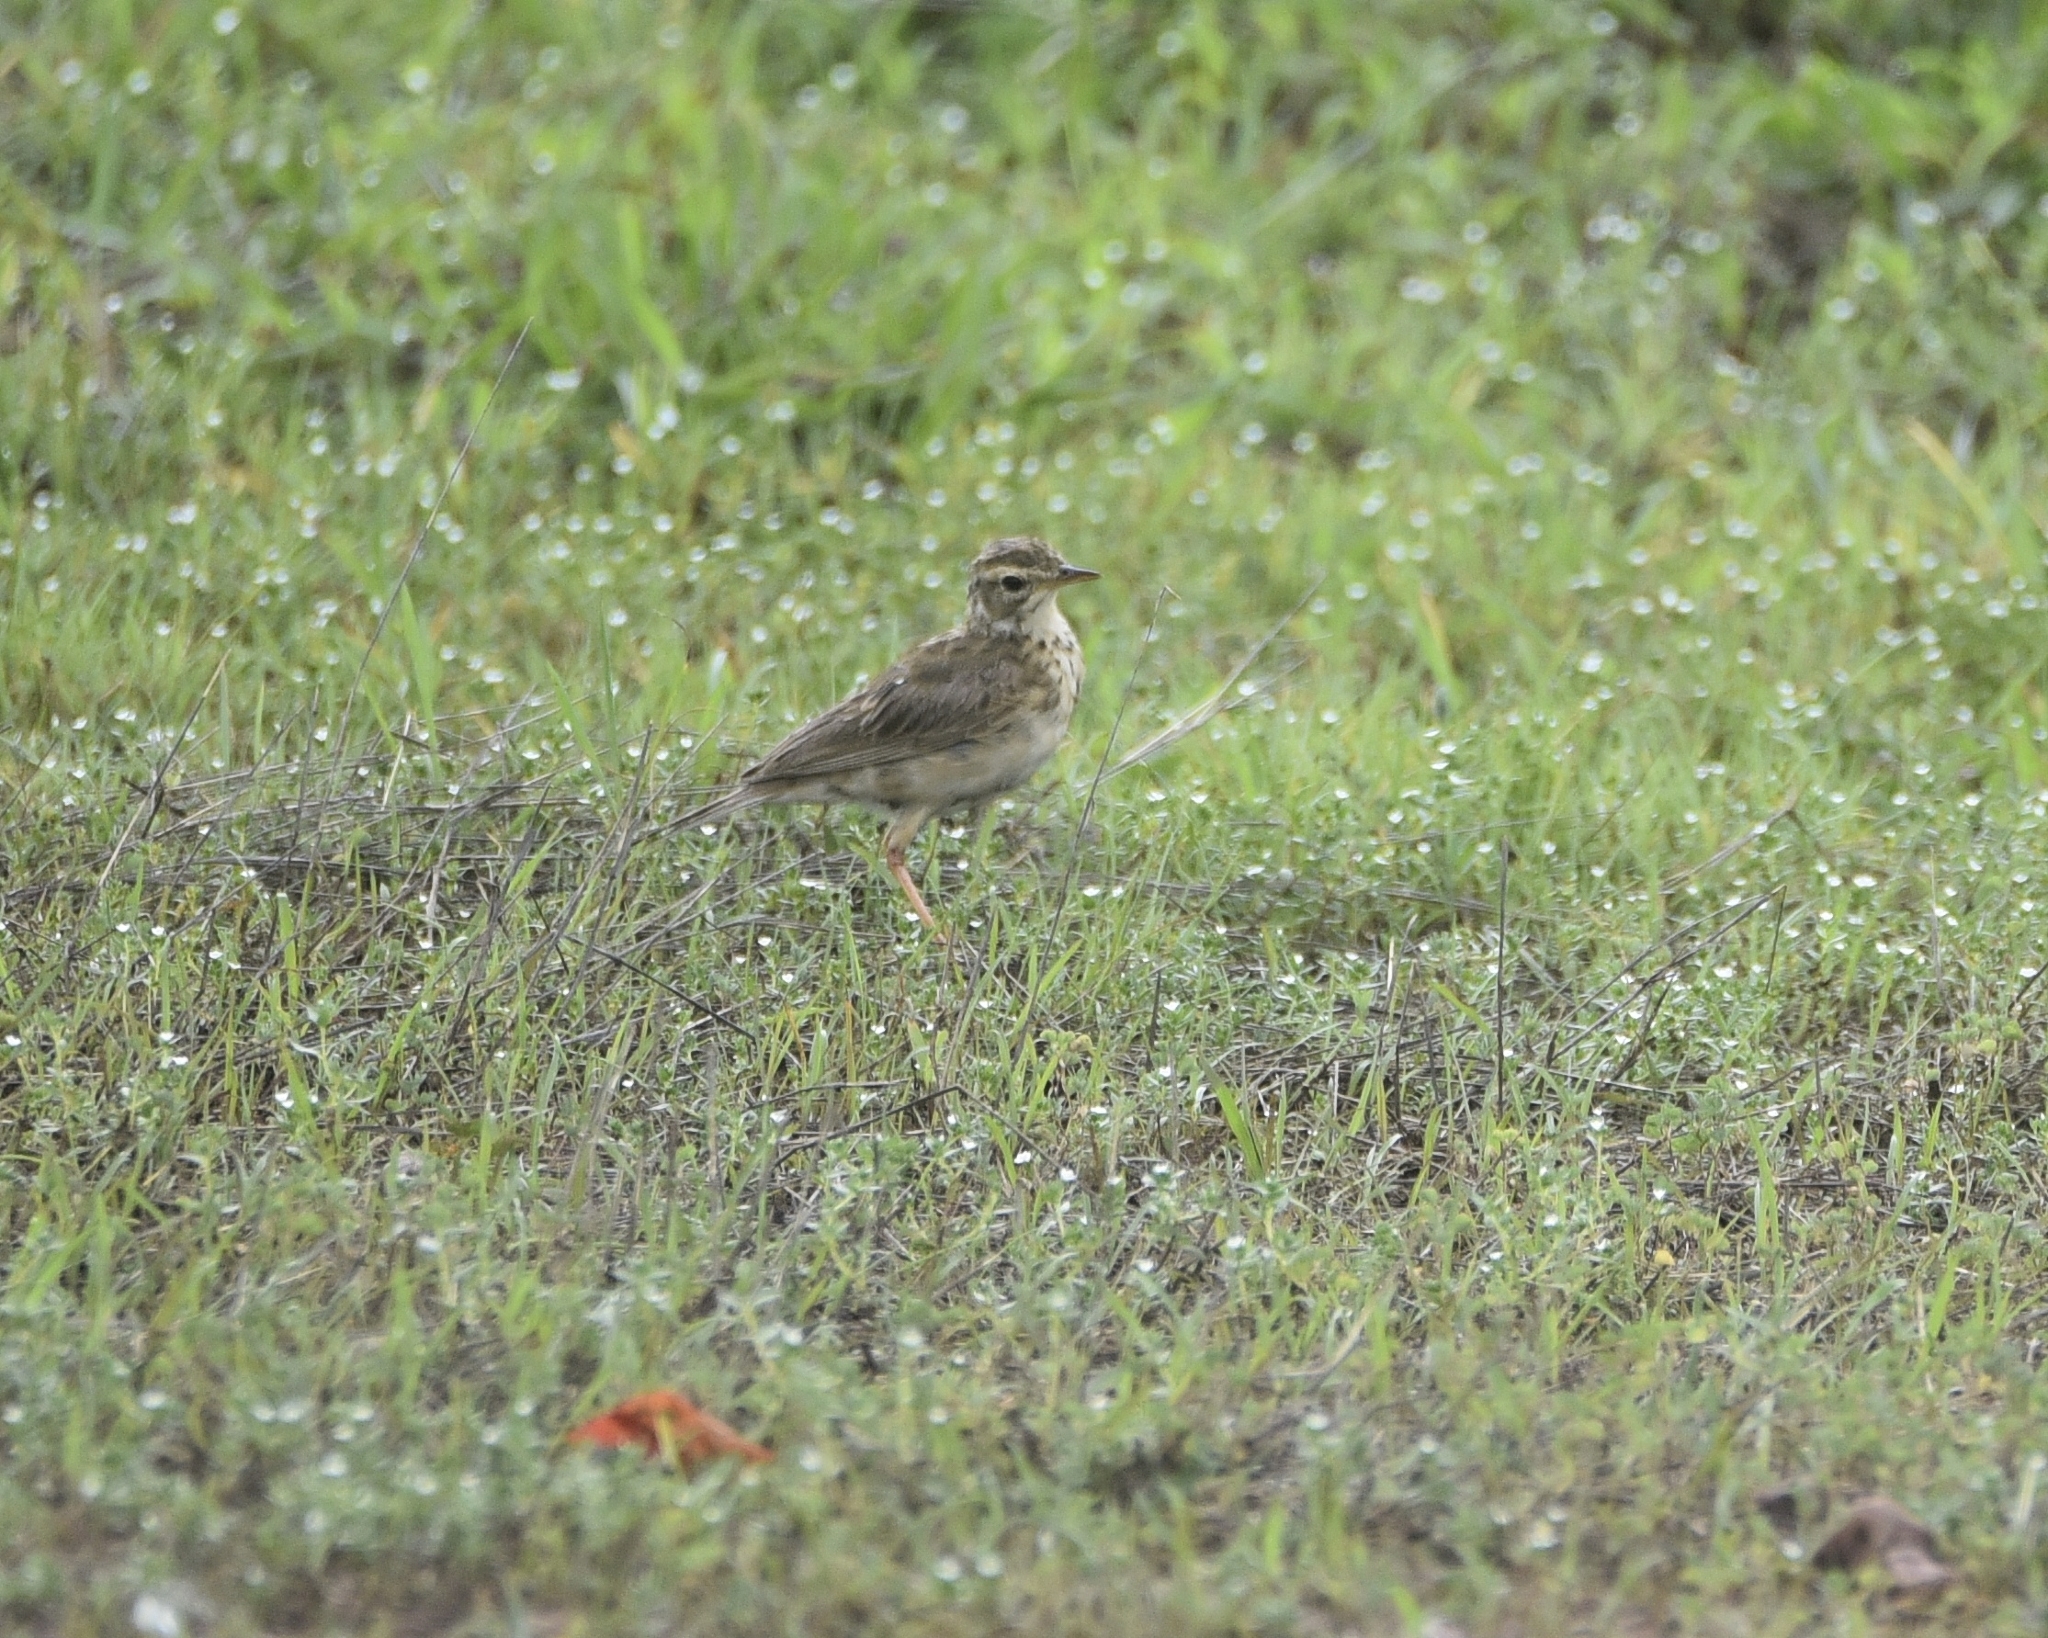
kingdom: Animalia
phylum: Chordata
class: Aves
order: Passeriformes
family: Motacillidae
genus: Anthus
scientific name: Anthus rufulus
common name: Paddyfield pipit
